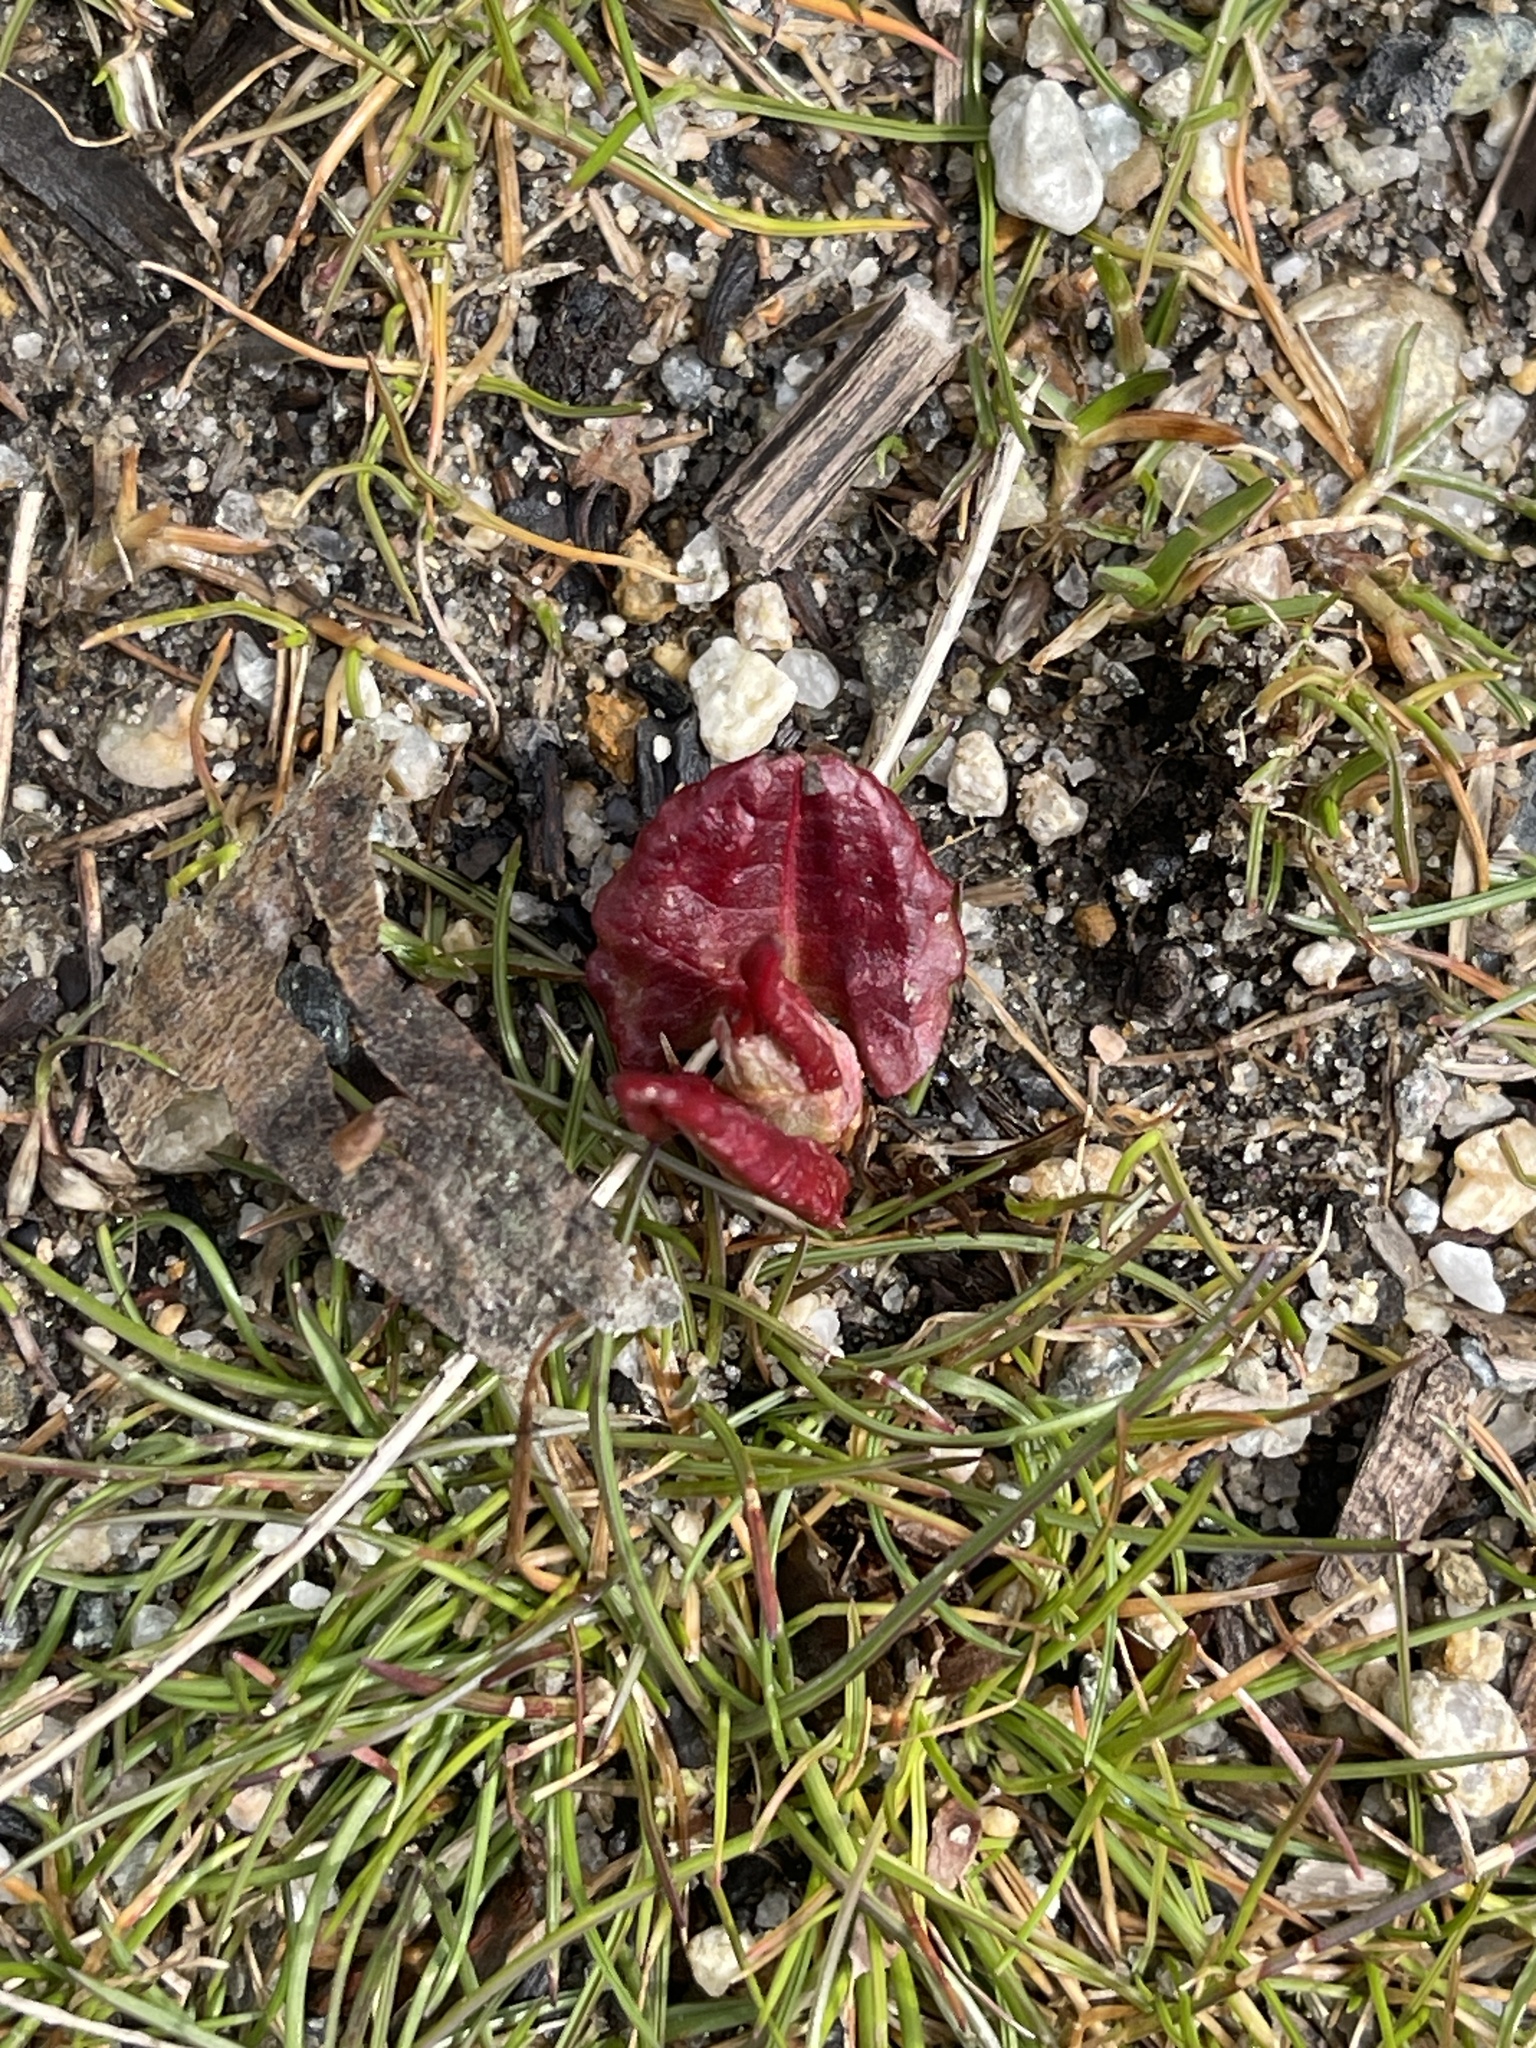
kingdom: Plantae
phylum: Tracheophyta
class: Magnoliopsida
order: Caryophyllales
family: Polygonaceae
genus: Reynoutria
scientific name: Reynoutria japonica
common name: Japanese knotweed
